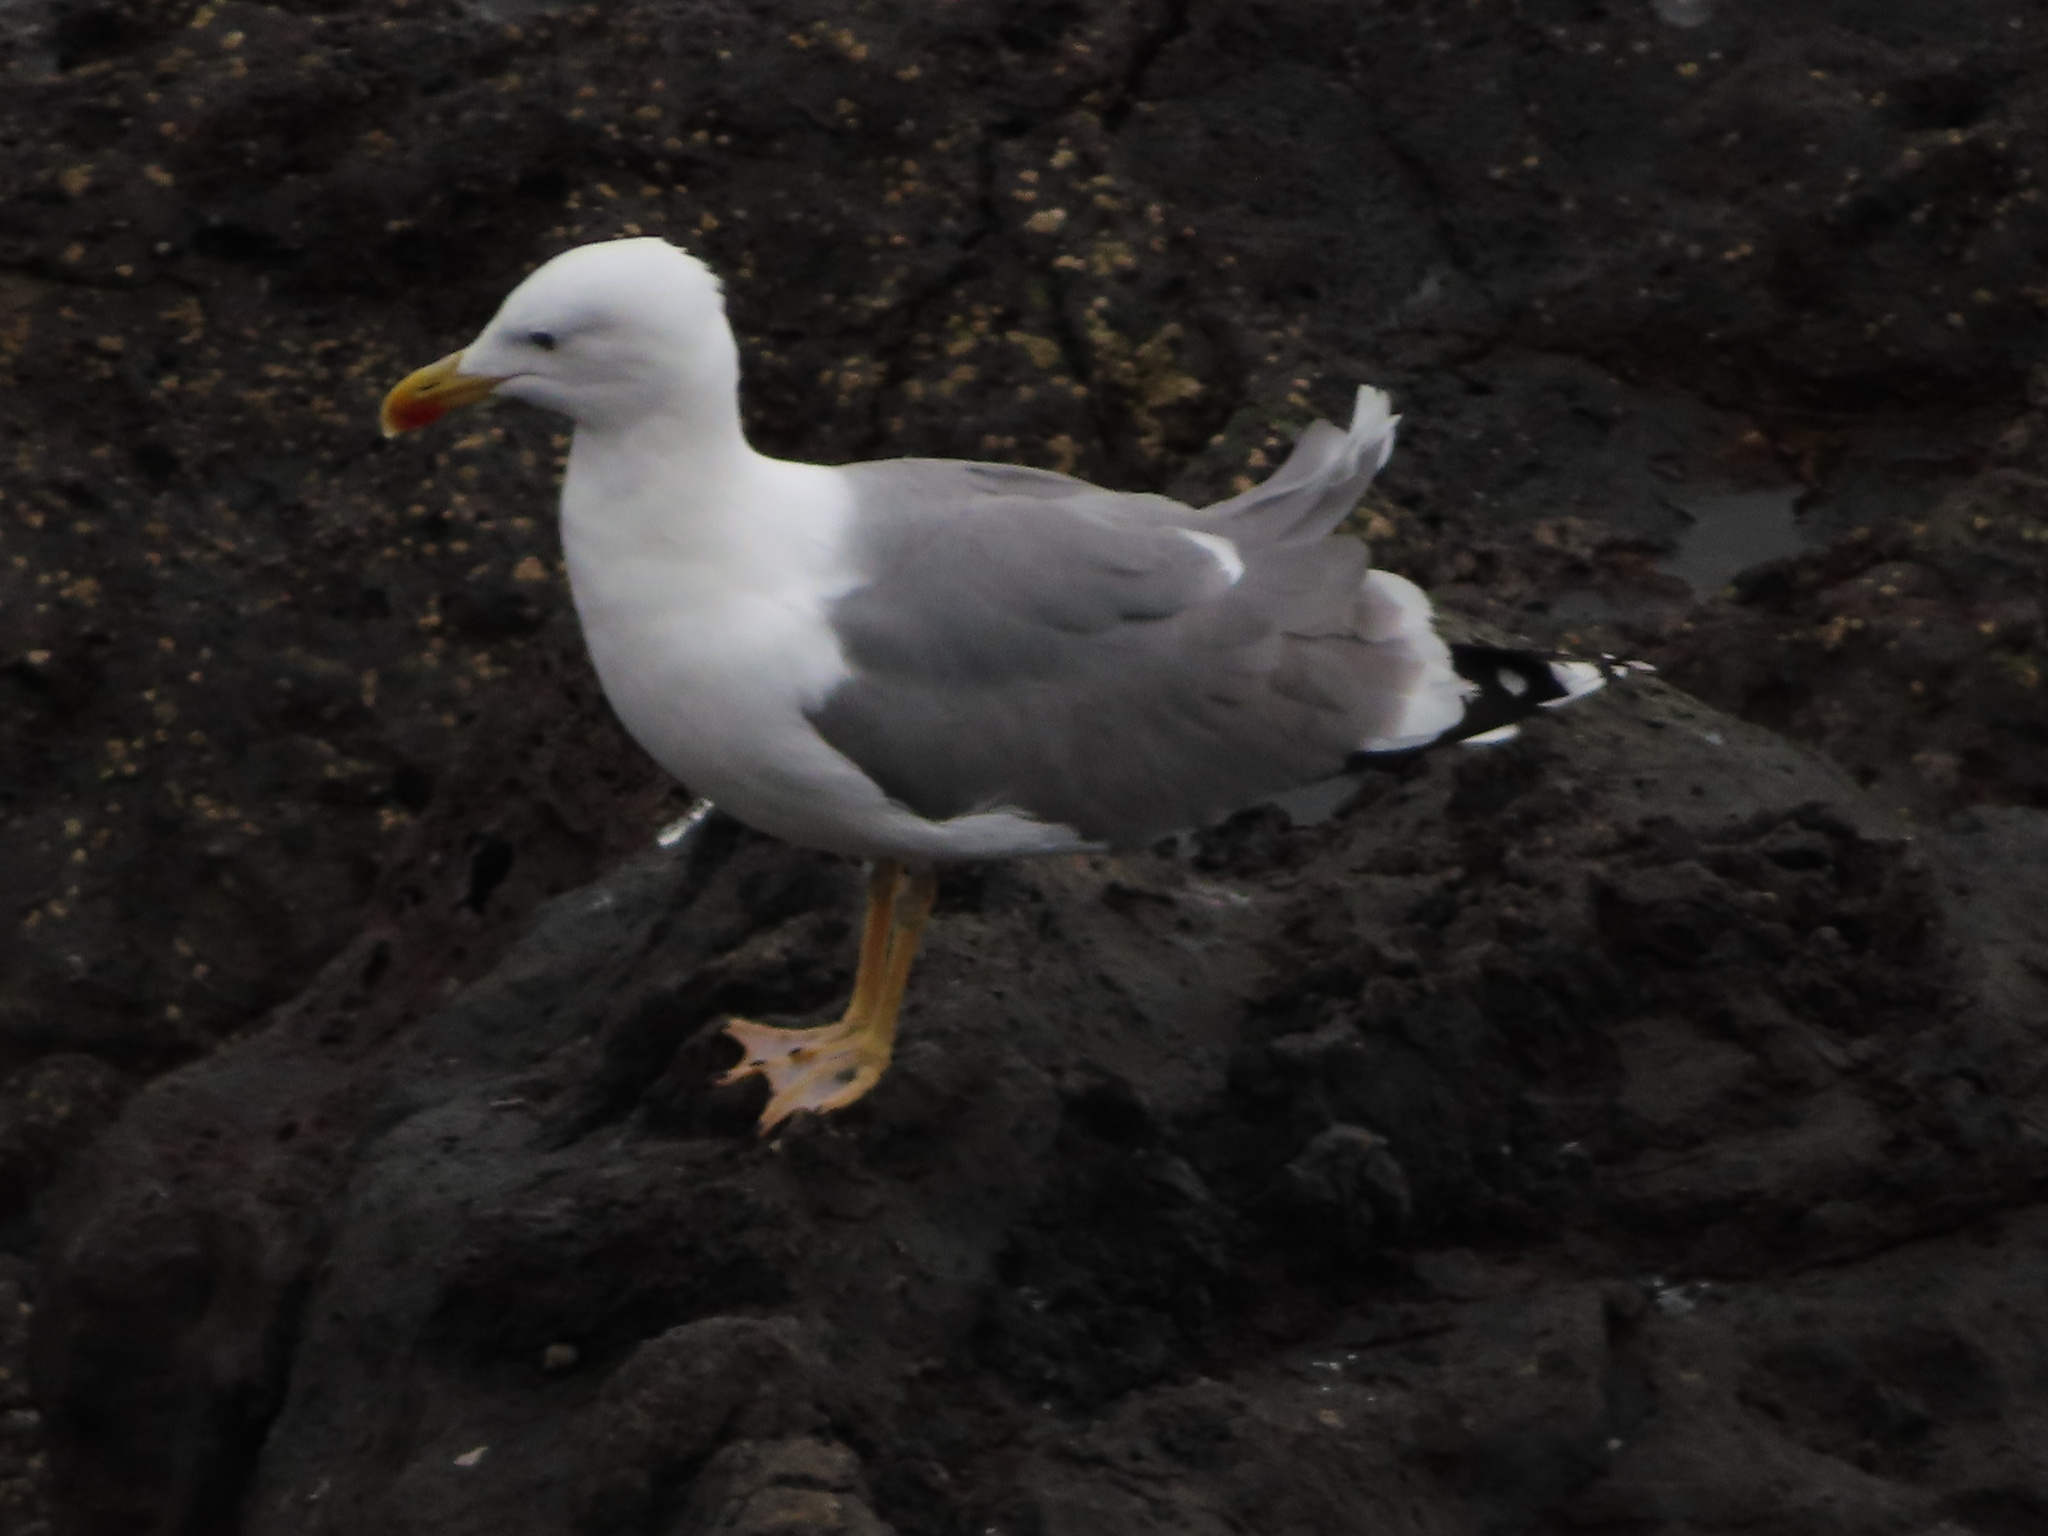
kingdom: Animalia
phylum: Chordata
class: Aves
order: Charadriiformes
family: Laridae
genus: Larus
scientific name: Larus michahellis
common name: Yellow-legged gull
